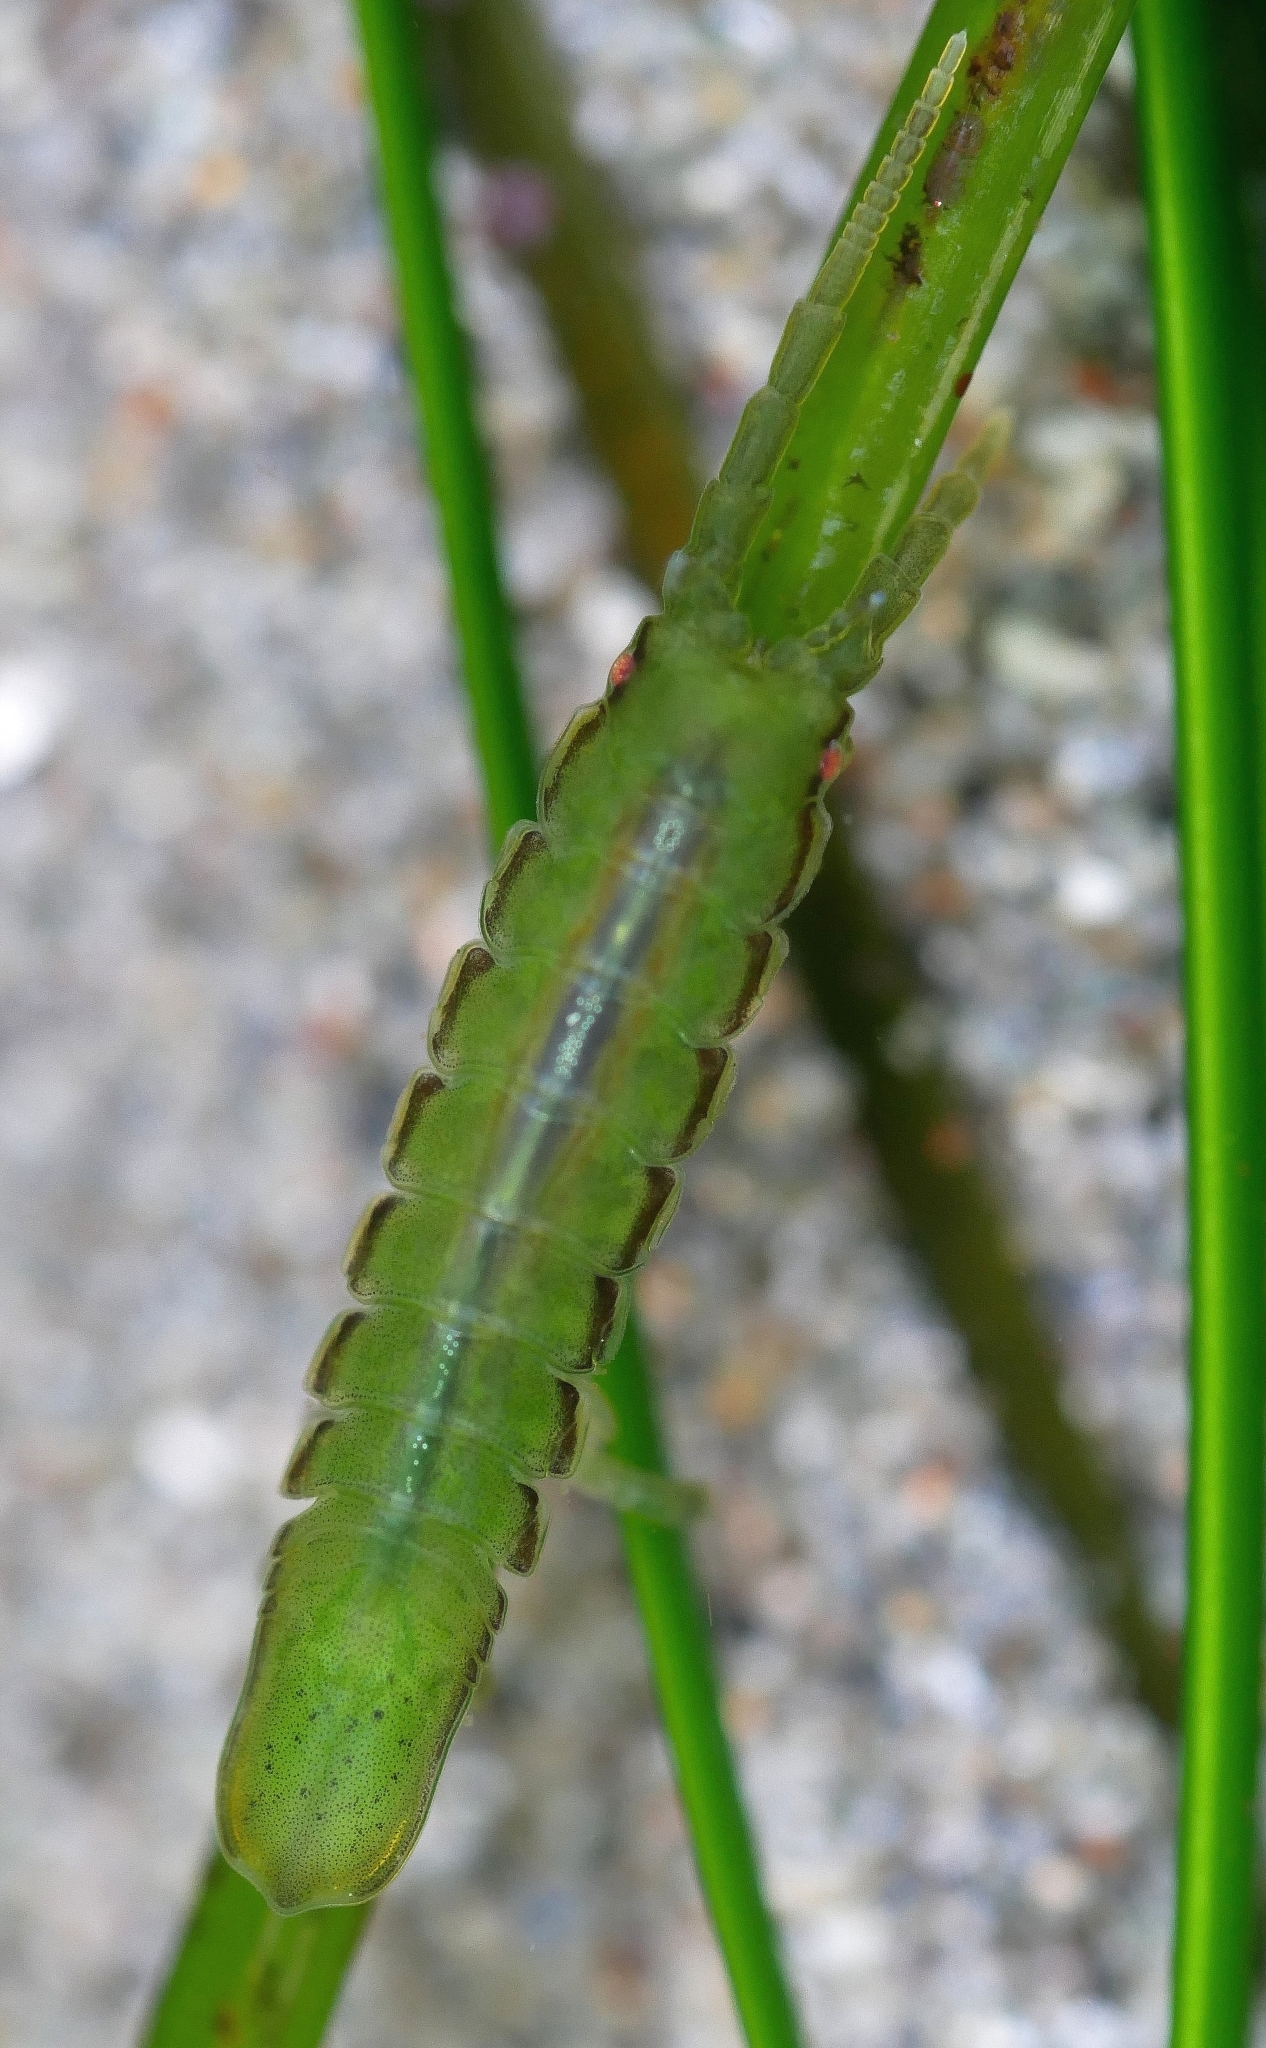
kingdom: Animalia
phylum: Arthropoda
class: Malacostraca
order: Isopoda
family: Idoteidae
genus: Pentidotea
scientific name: Pentidotea montereyensis
